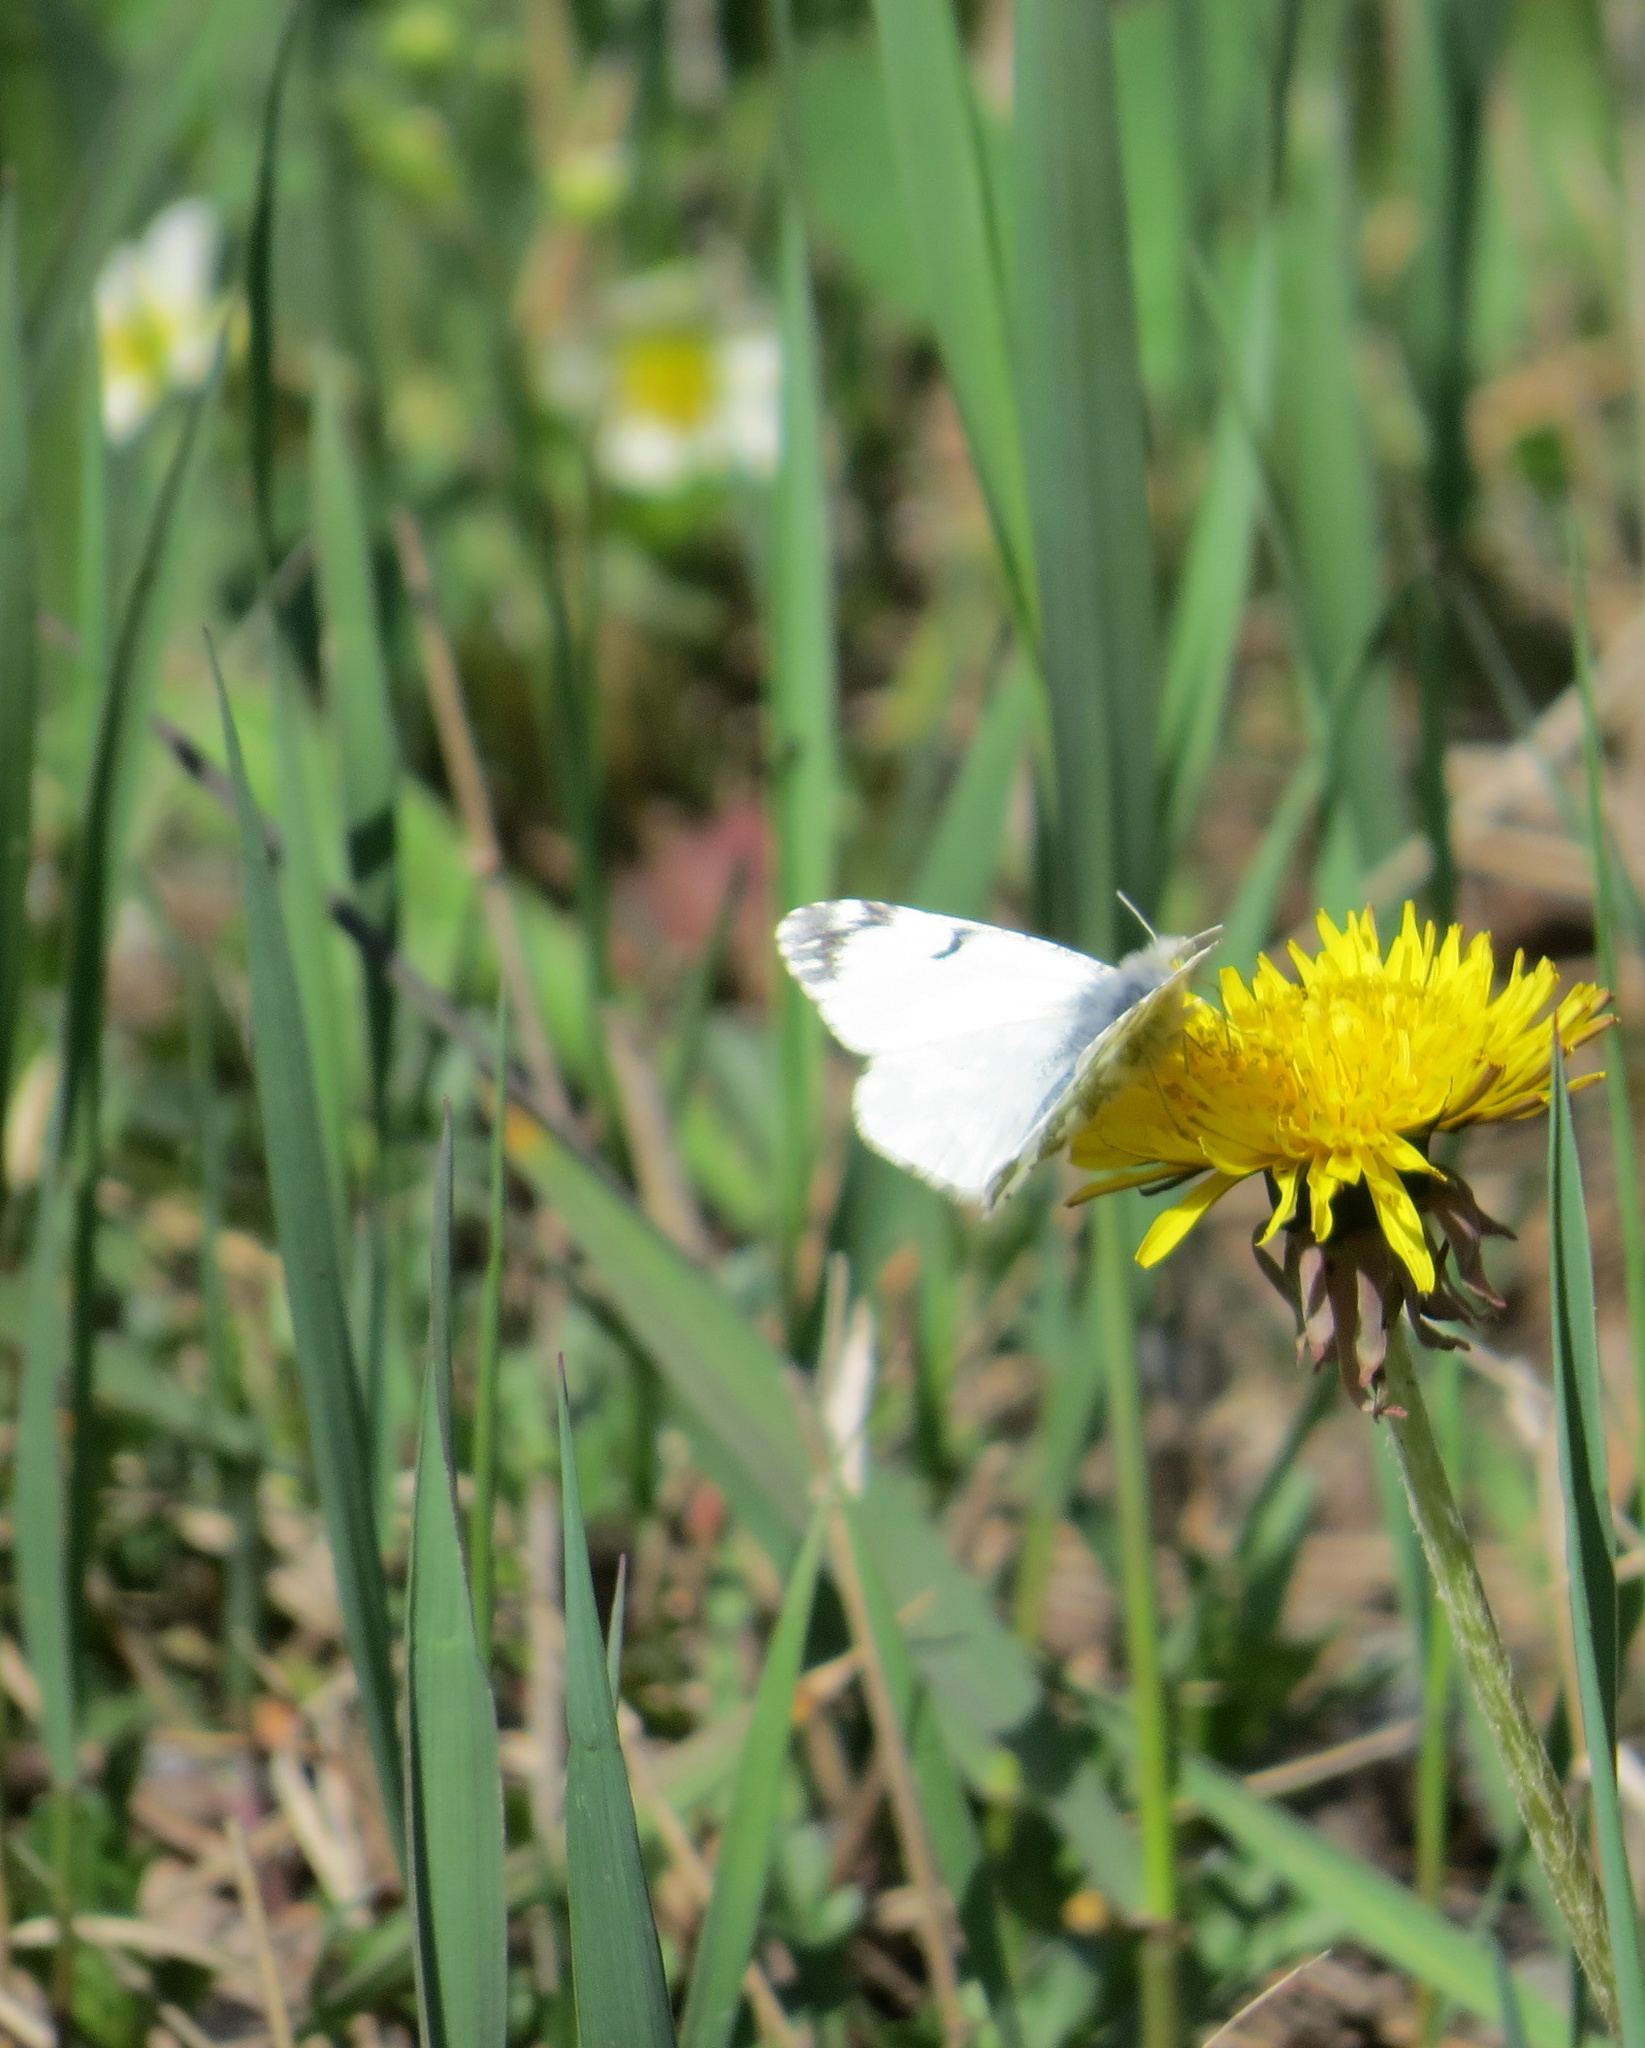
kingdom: Animalia
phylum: Arthropoda
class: Insecta
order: Lepidoptera
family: Pieridae
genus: Euchloe
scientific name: Euchloe ausonides
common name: Creamy marblewing
